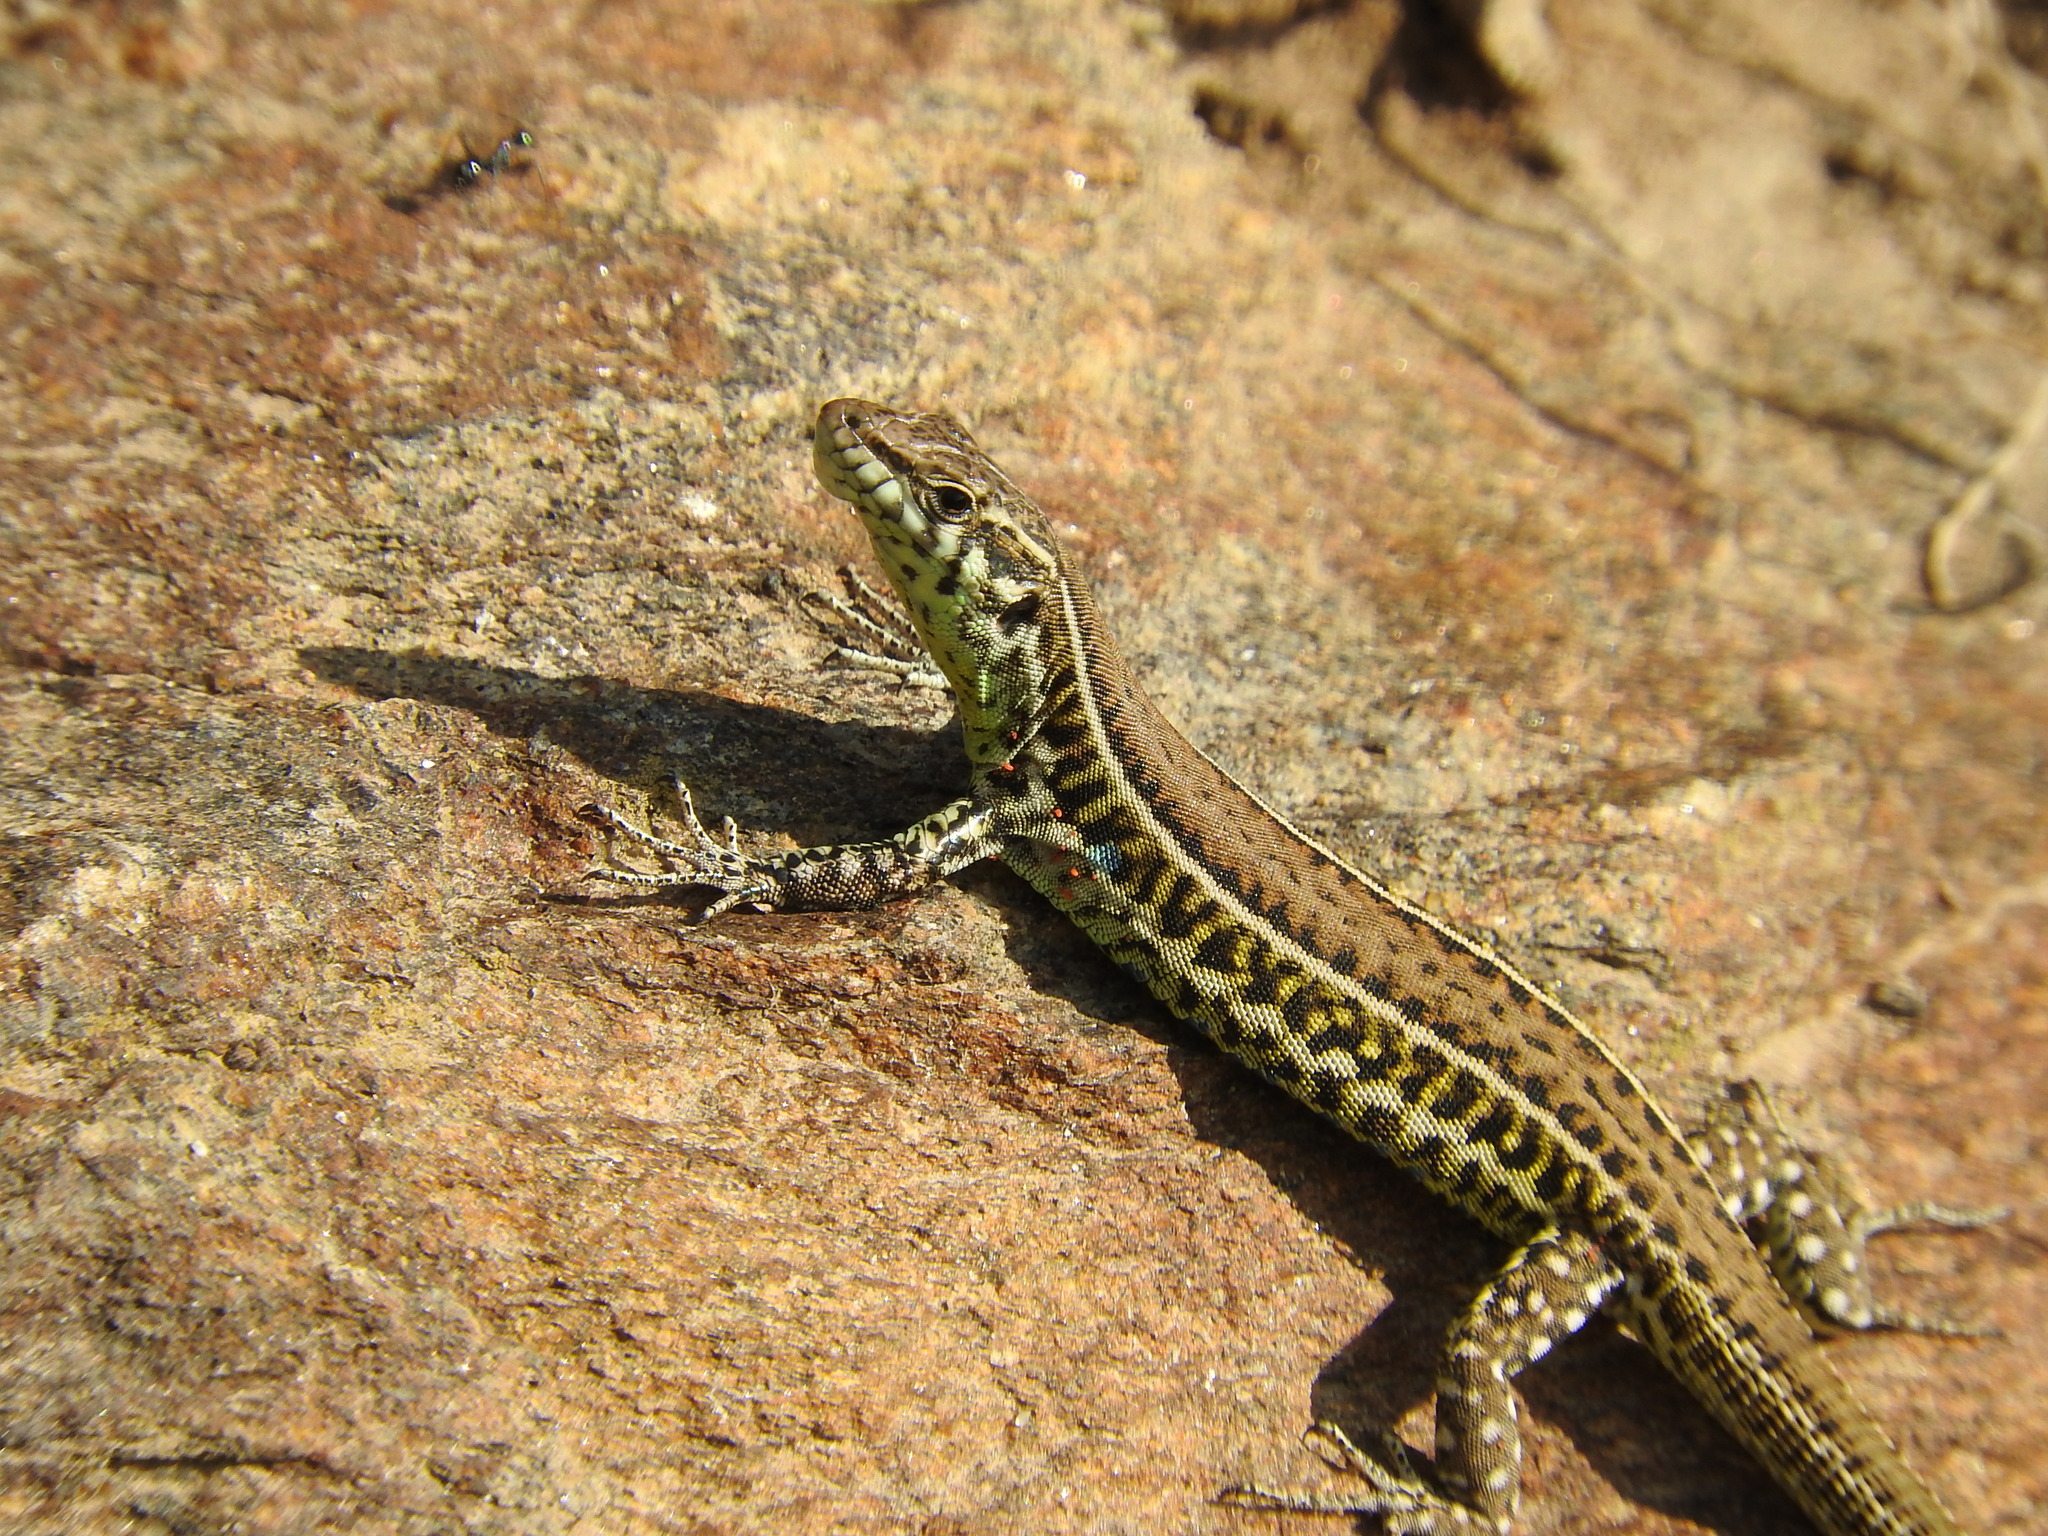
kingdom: Animalia
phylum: Chordata
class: Squamata
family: Lacertidae
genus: Podarcis
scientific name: Podarcis tiliguerta
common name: Tyrrhenian wall lizard
